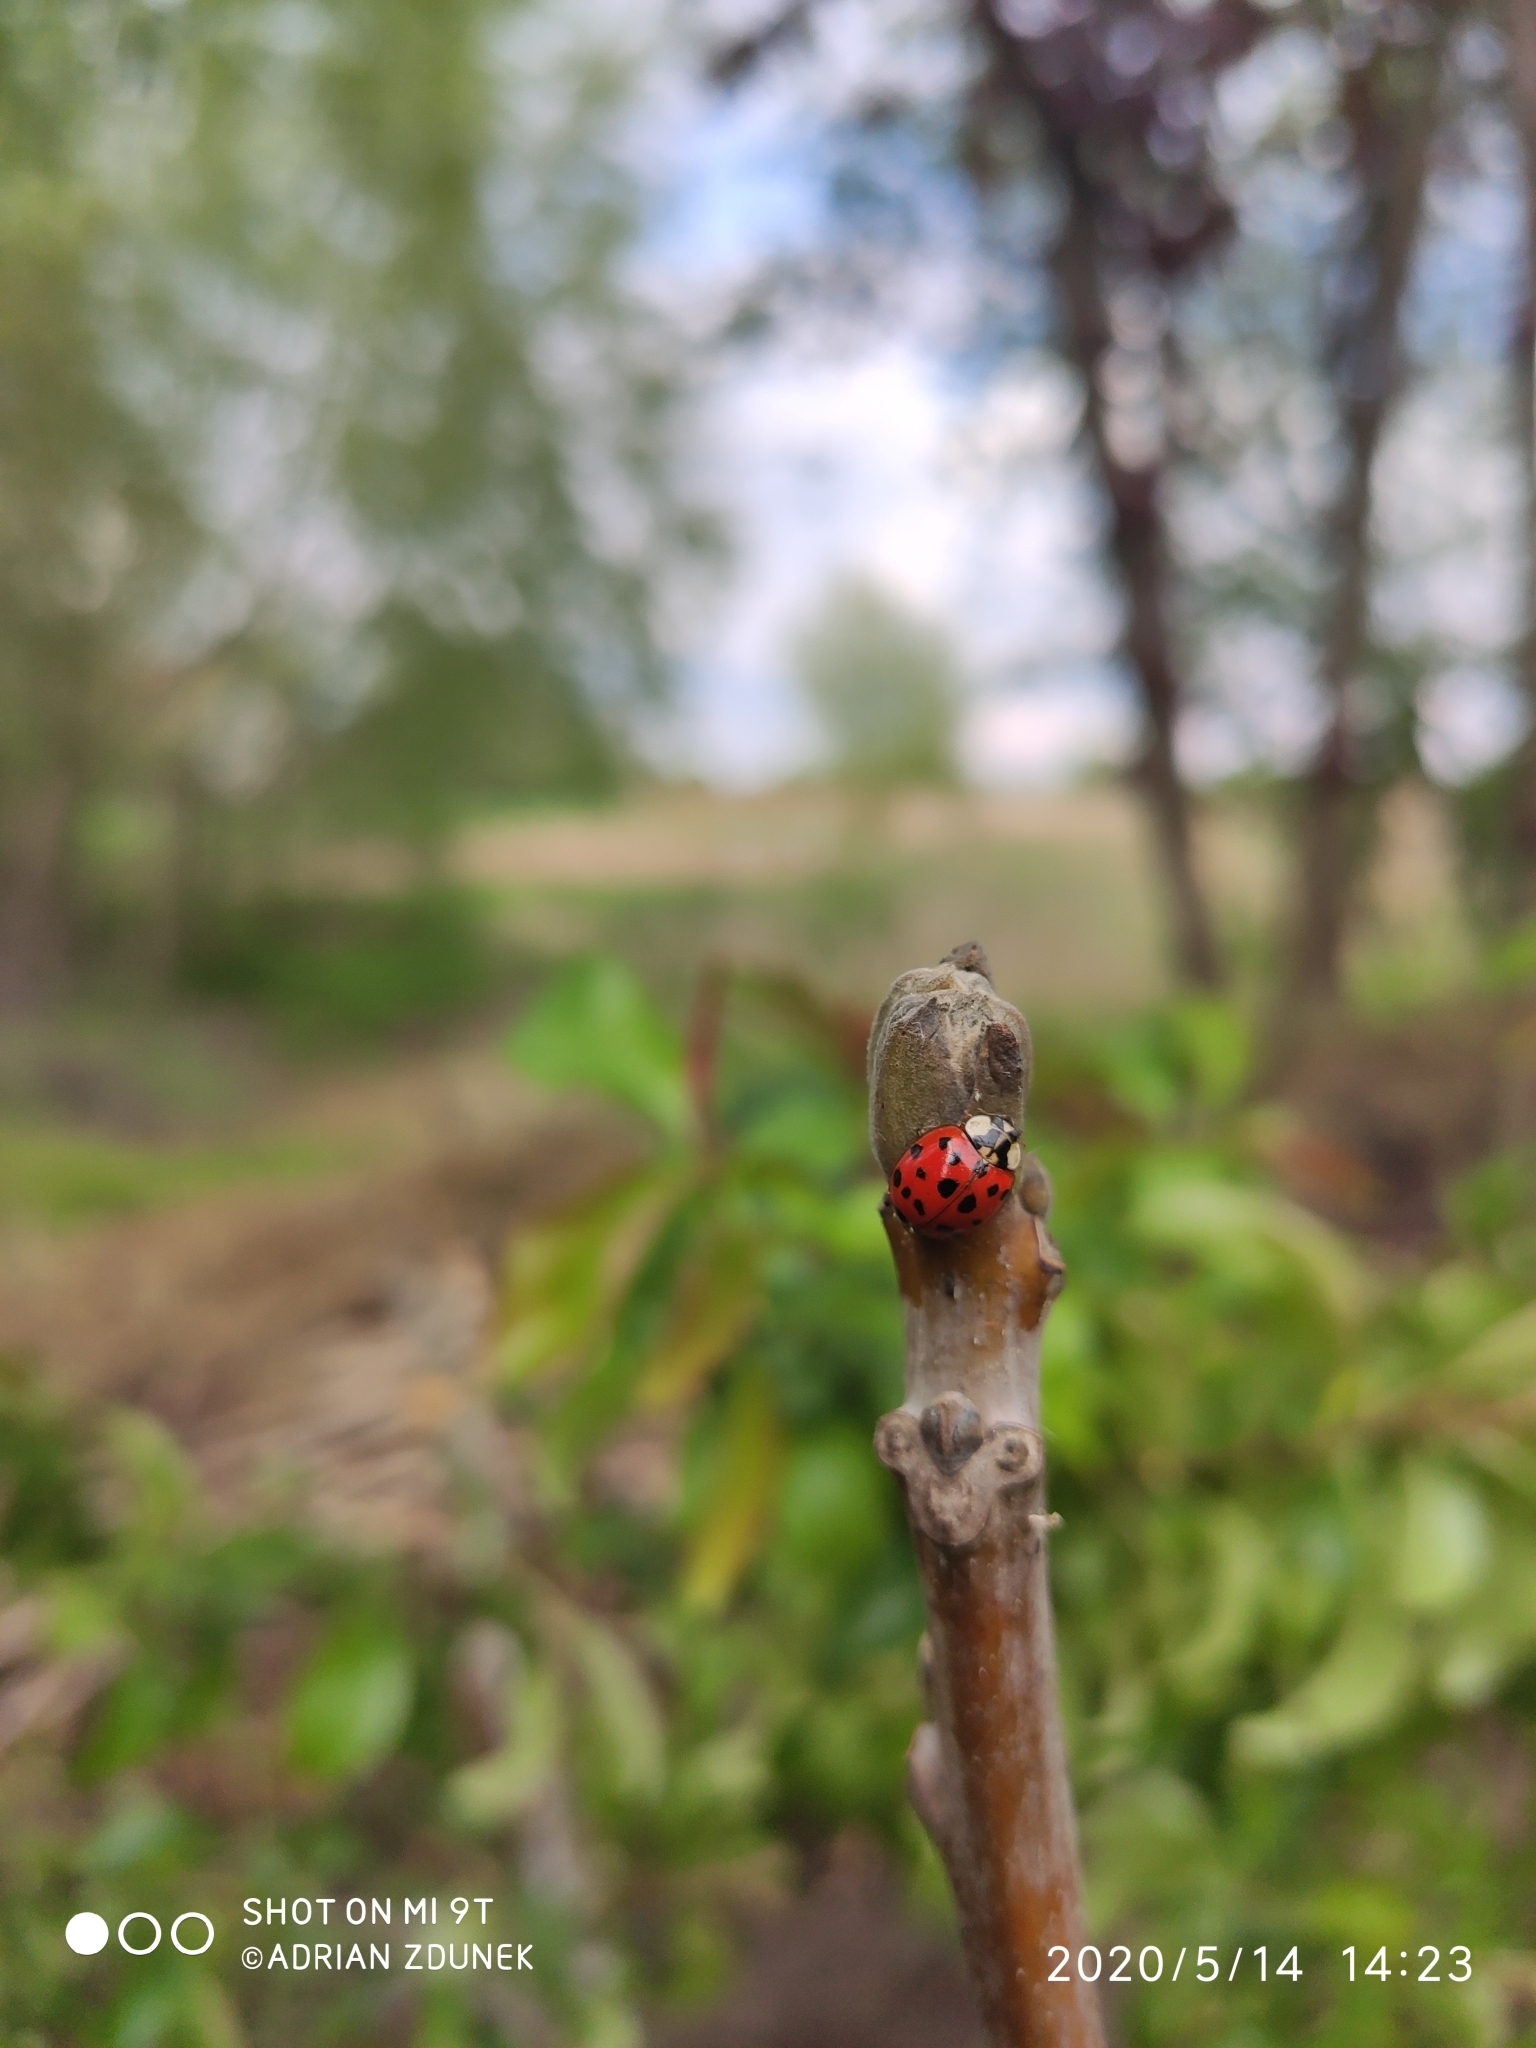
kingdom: Animalia
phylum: Arthropoda
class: Insecta
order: Coleoptera
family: Coccinellidae
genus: Harmonia
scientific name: Harmonia axyridis
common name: Harlequin ladybird
